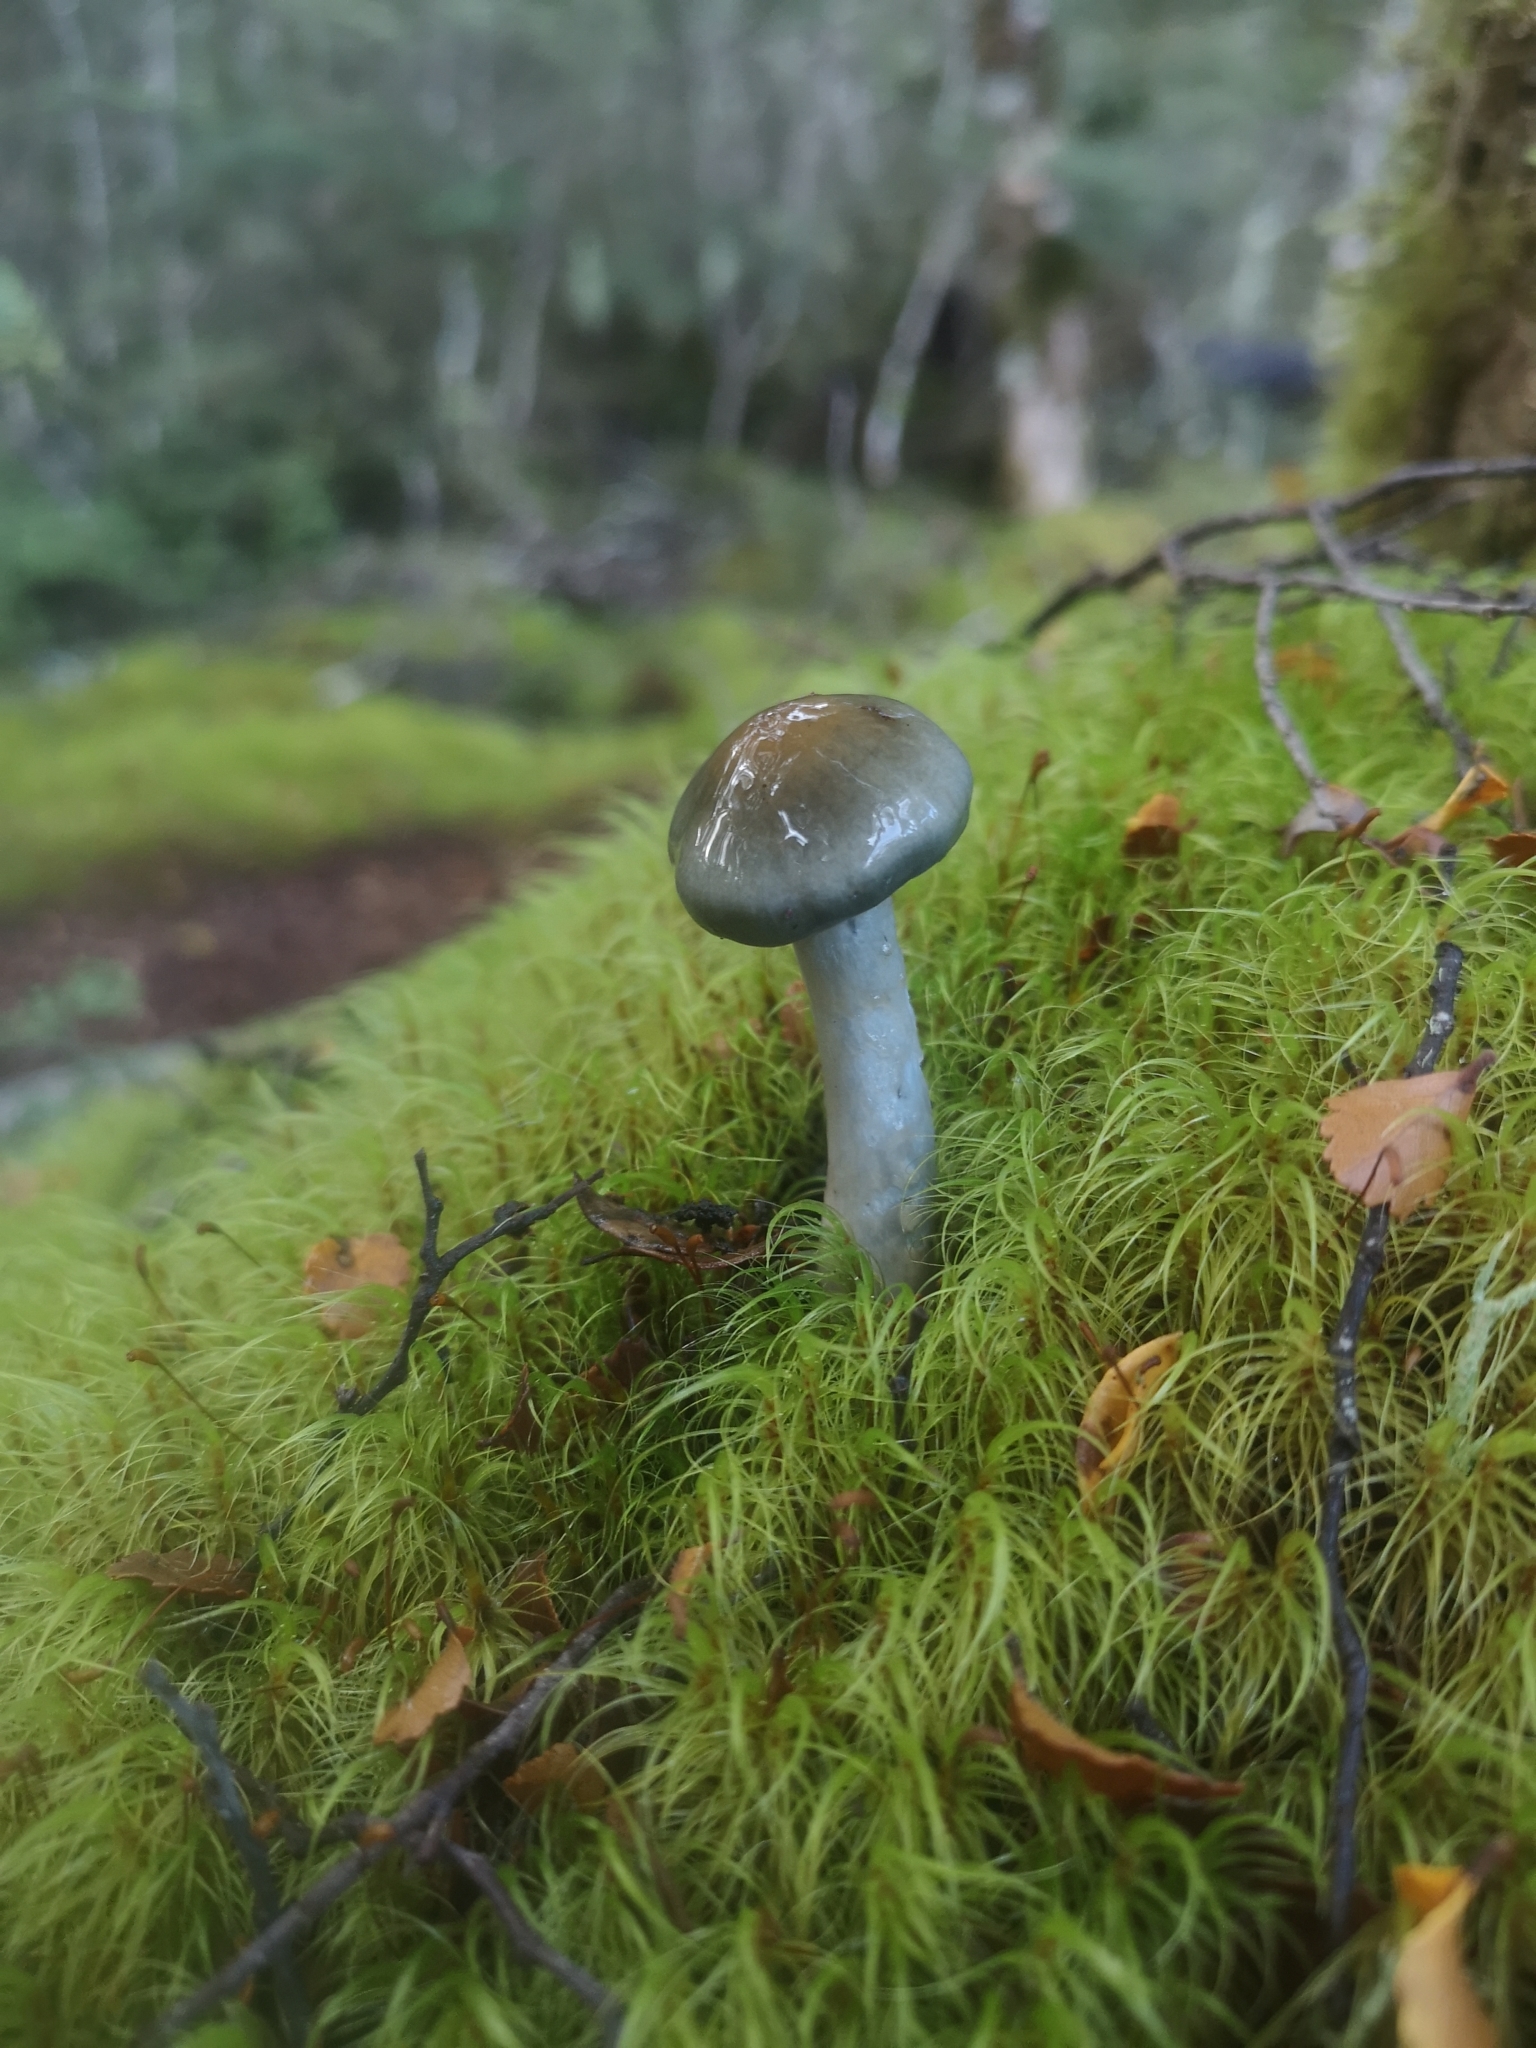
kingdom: Fungi
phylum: Basidiomycota
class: Agaricomycetes
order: Agaricales
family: Cortinariaceae
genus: Cortinarius
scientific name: Cortinarius aerugineoconicus
